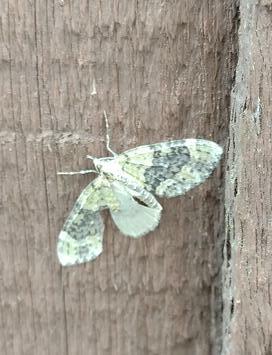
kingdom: Animalia
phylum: Arthropoda
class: Insecta
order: Lepidoptera
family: Geometridae
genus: Acasis
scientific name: Acasis viretata
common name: Yellow-barred brindle
